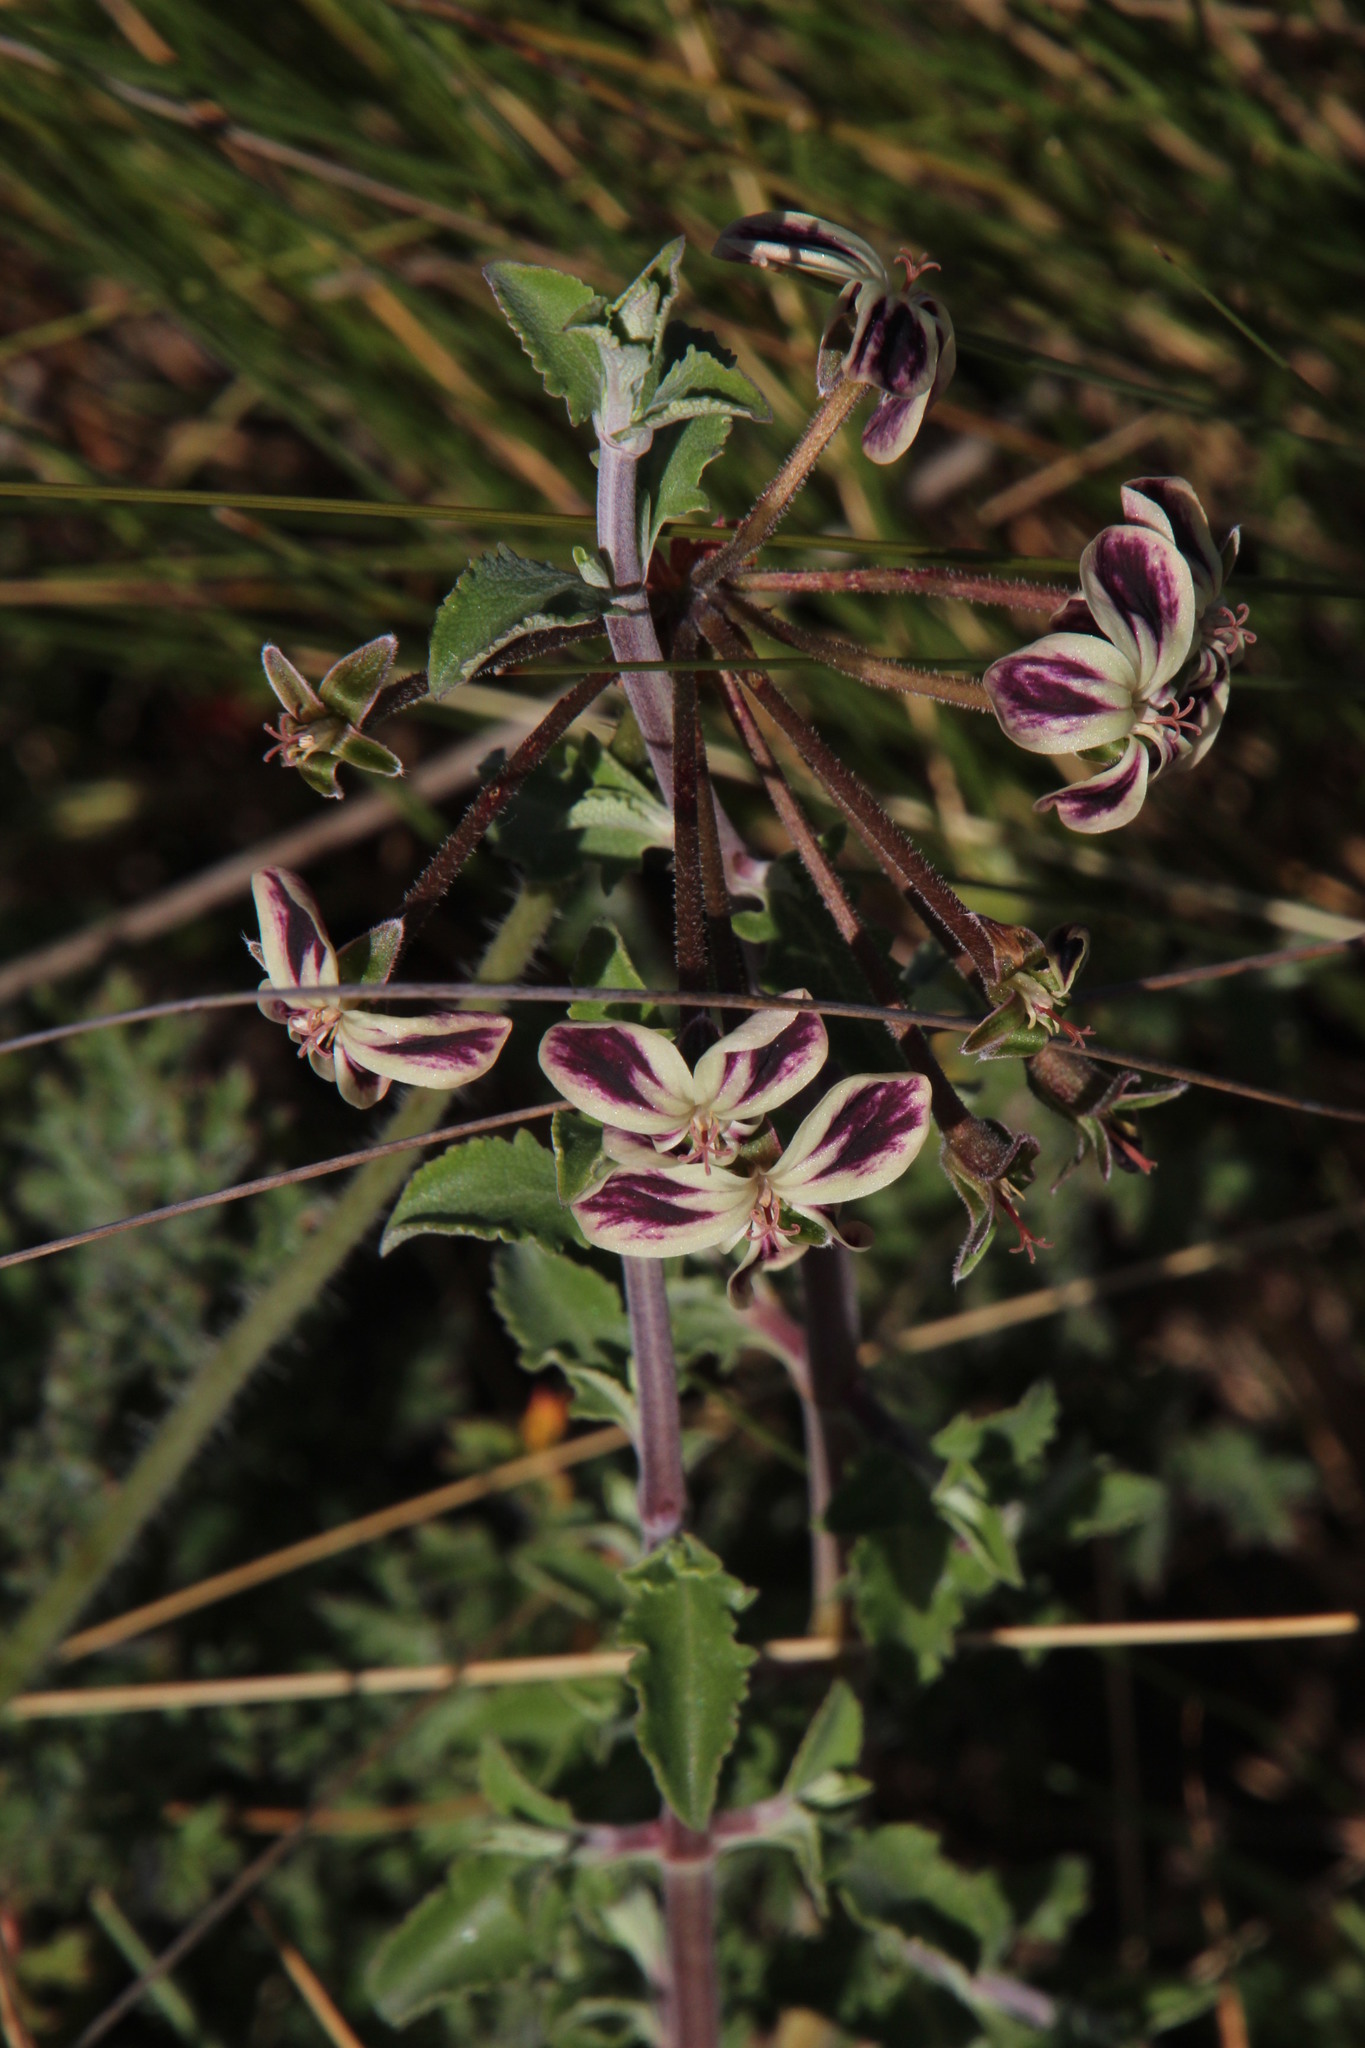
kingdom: Plantae
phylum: Tracheophyta
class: Magnoliopsida
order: Geraniales
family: Geraniaceae
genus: Pelargonium
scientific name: Pelargonium triste
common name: Night-scent pelargonium
